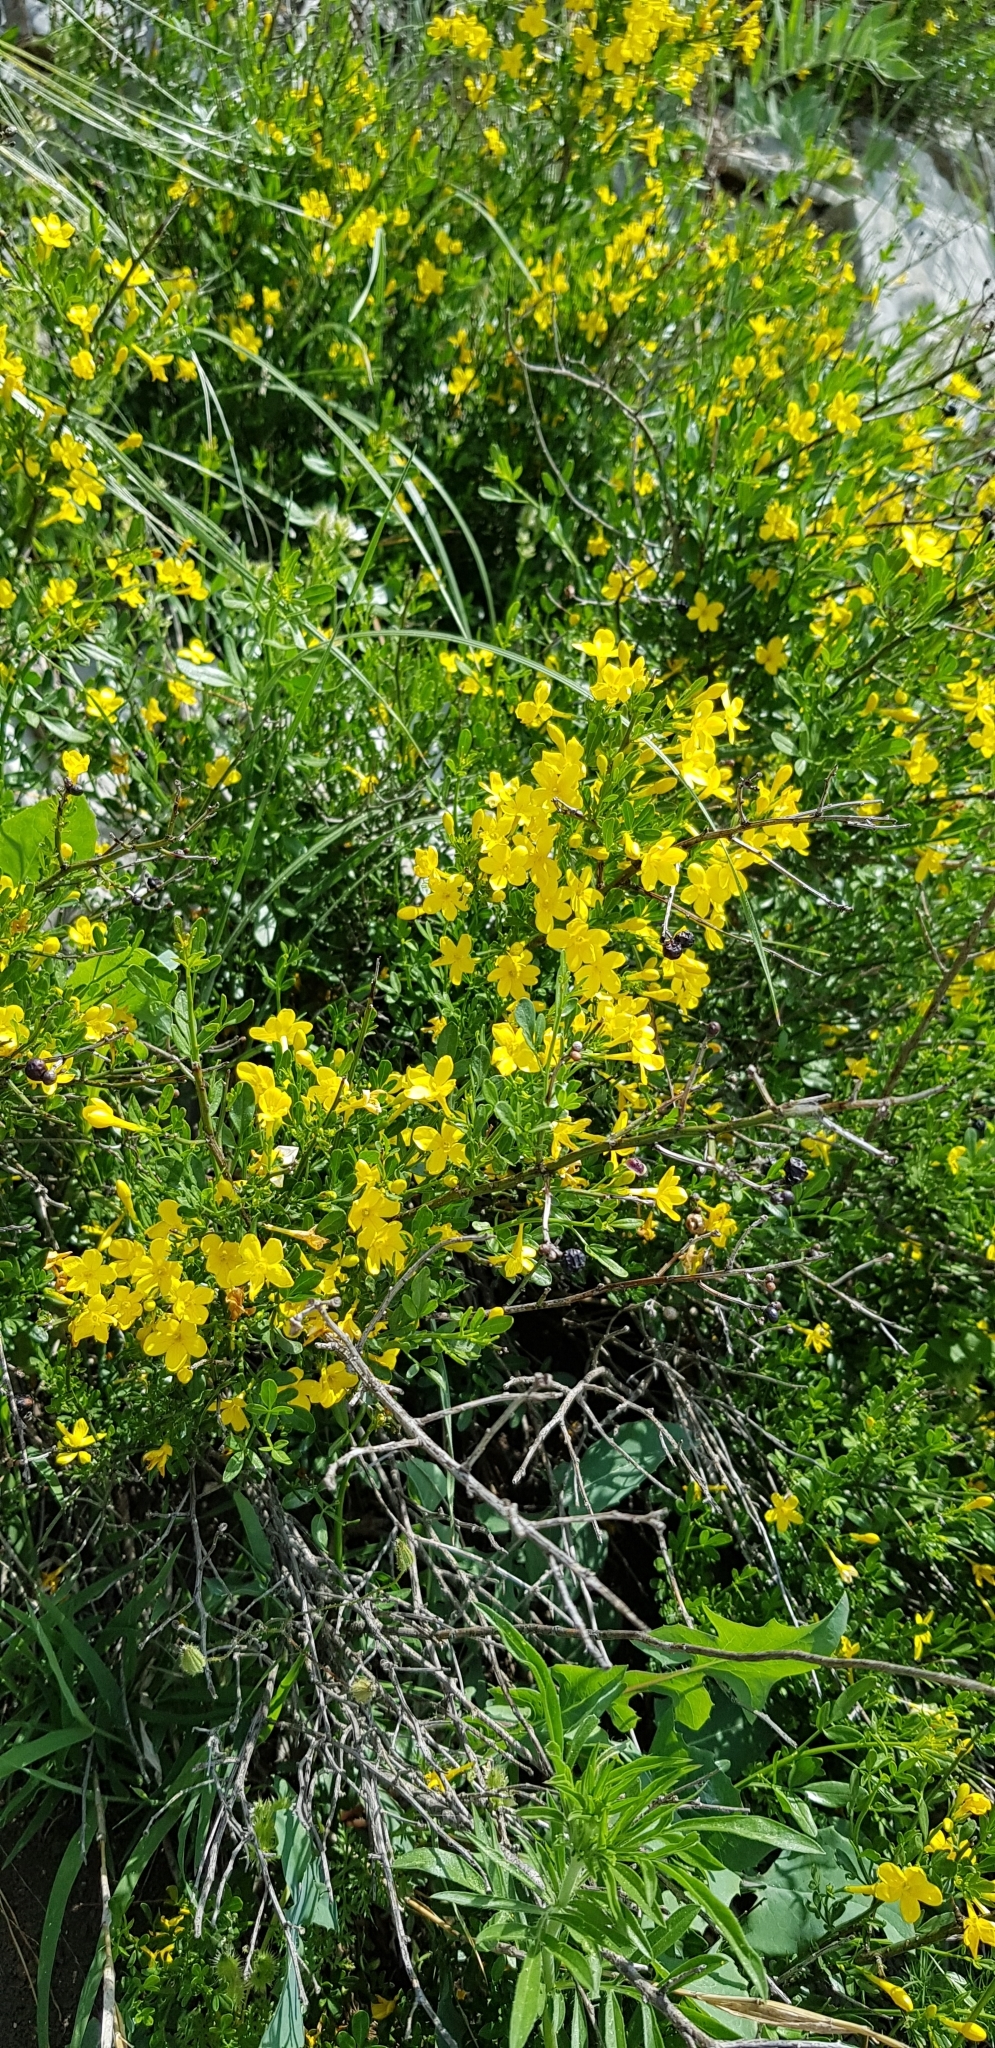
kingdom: Plantae
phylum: Tracheophyta
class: Magnoliopsida
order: Lamiales
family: Oleaceae
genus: Chrysojasminum
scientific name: Chrysojasminum fruticans
